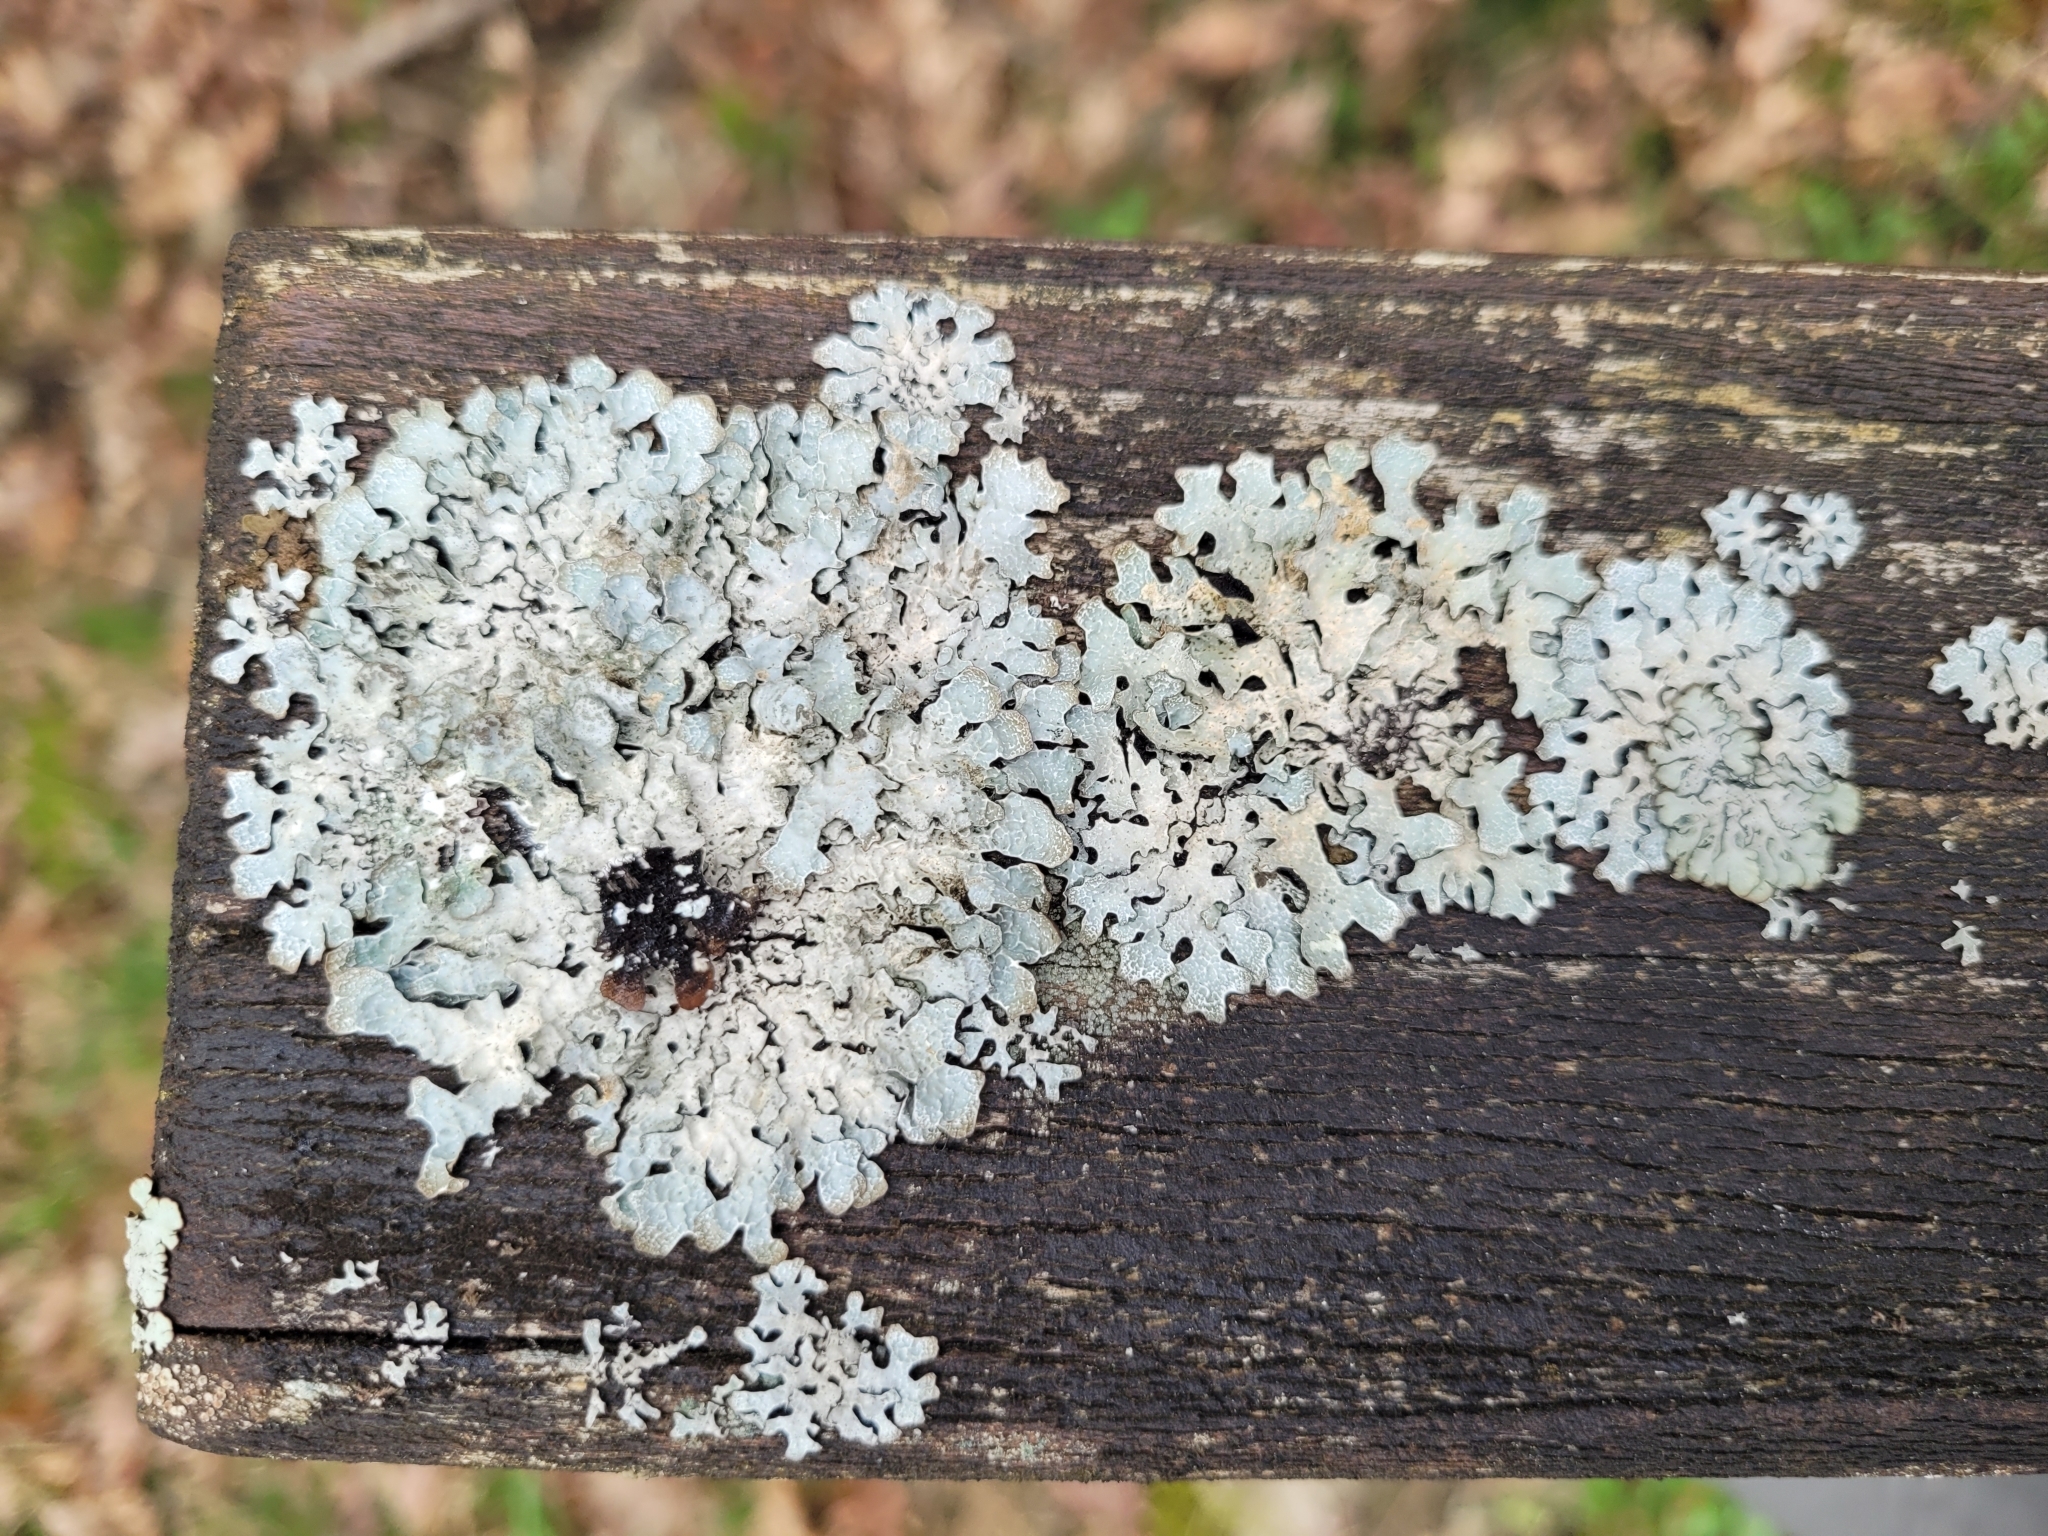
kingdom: Fungi
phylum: Ascomycota
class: Lecanoromycetes
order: Lecanorales
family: Parmeliaceae
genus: Parmelia
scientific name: Parmelia sulcata
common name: Netted shield lichen
